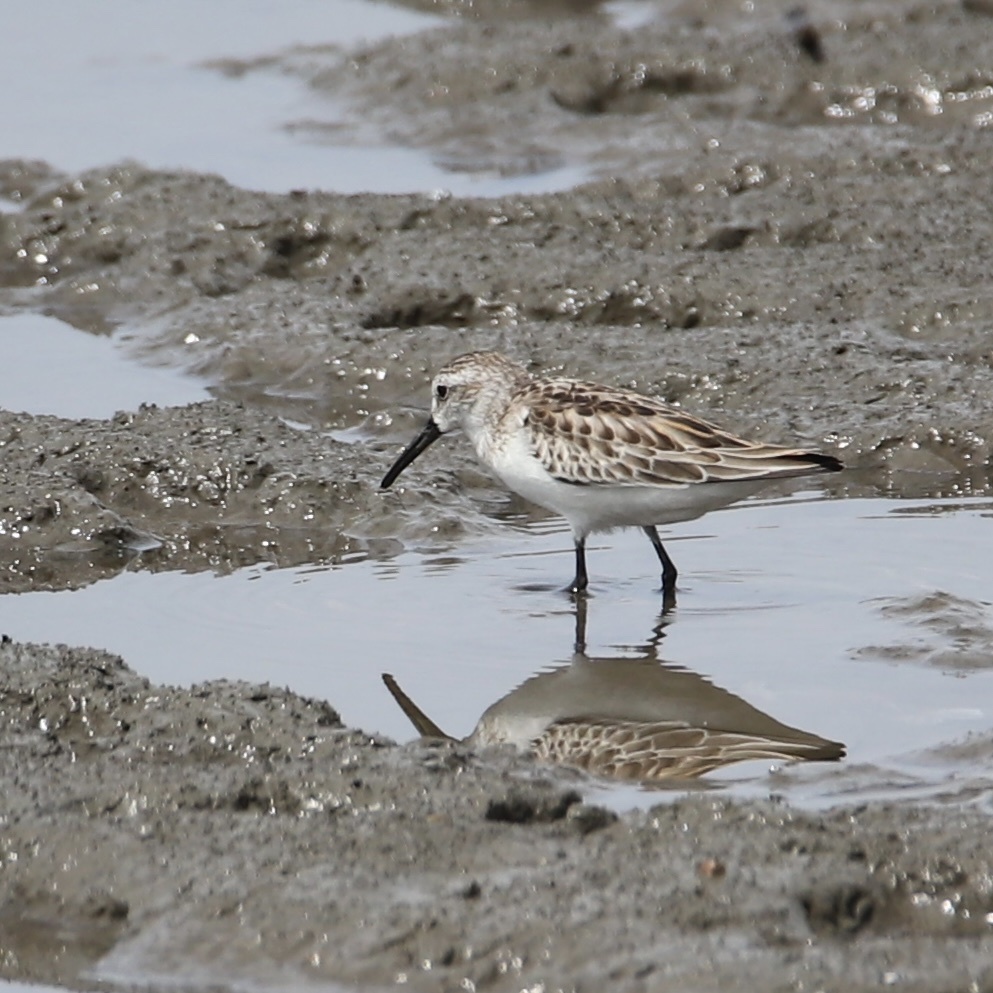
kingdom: Animalia
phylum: Chordata
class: Aves
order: Charadriiformes
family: Scolopacidae
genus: Calidris
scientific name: Calidris mauri
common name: Western sandpiper
